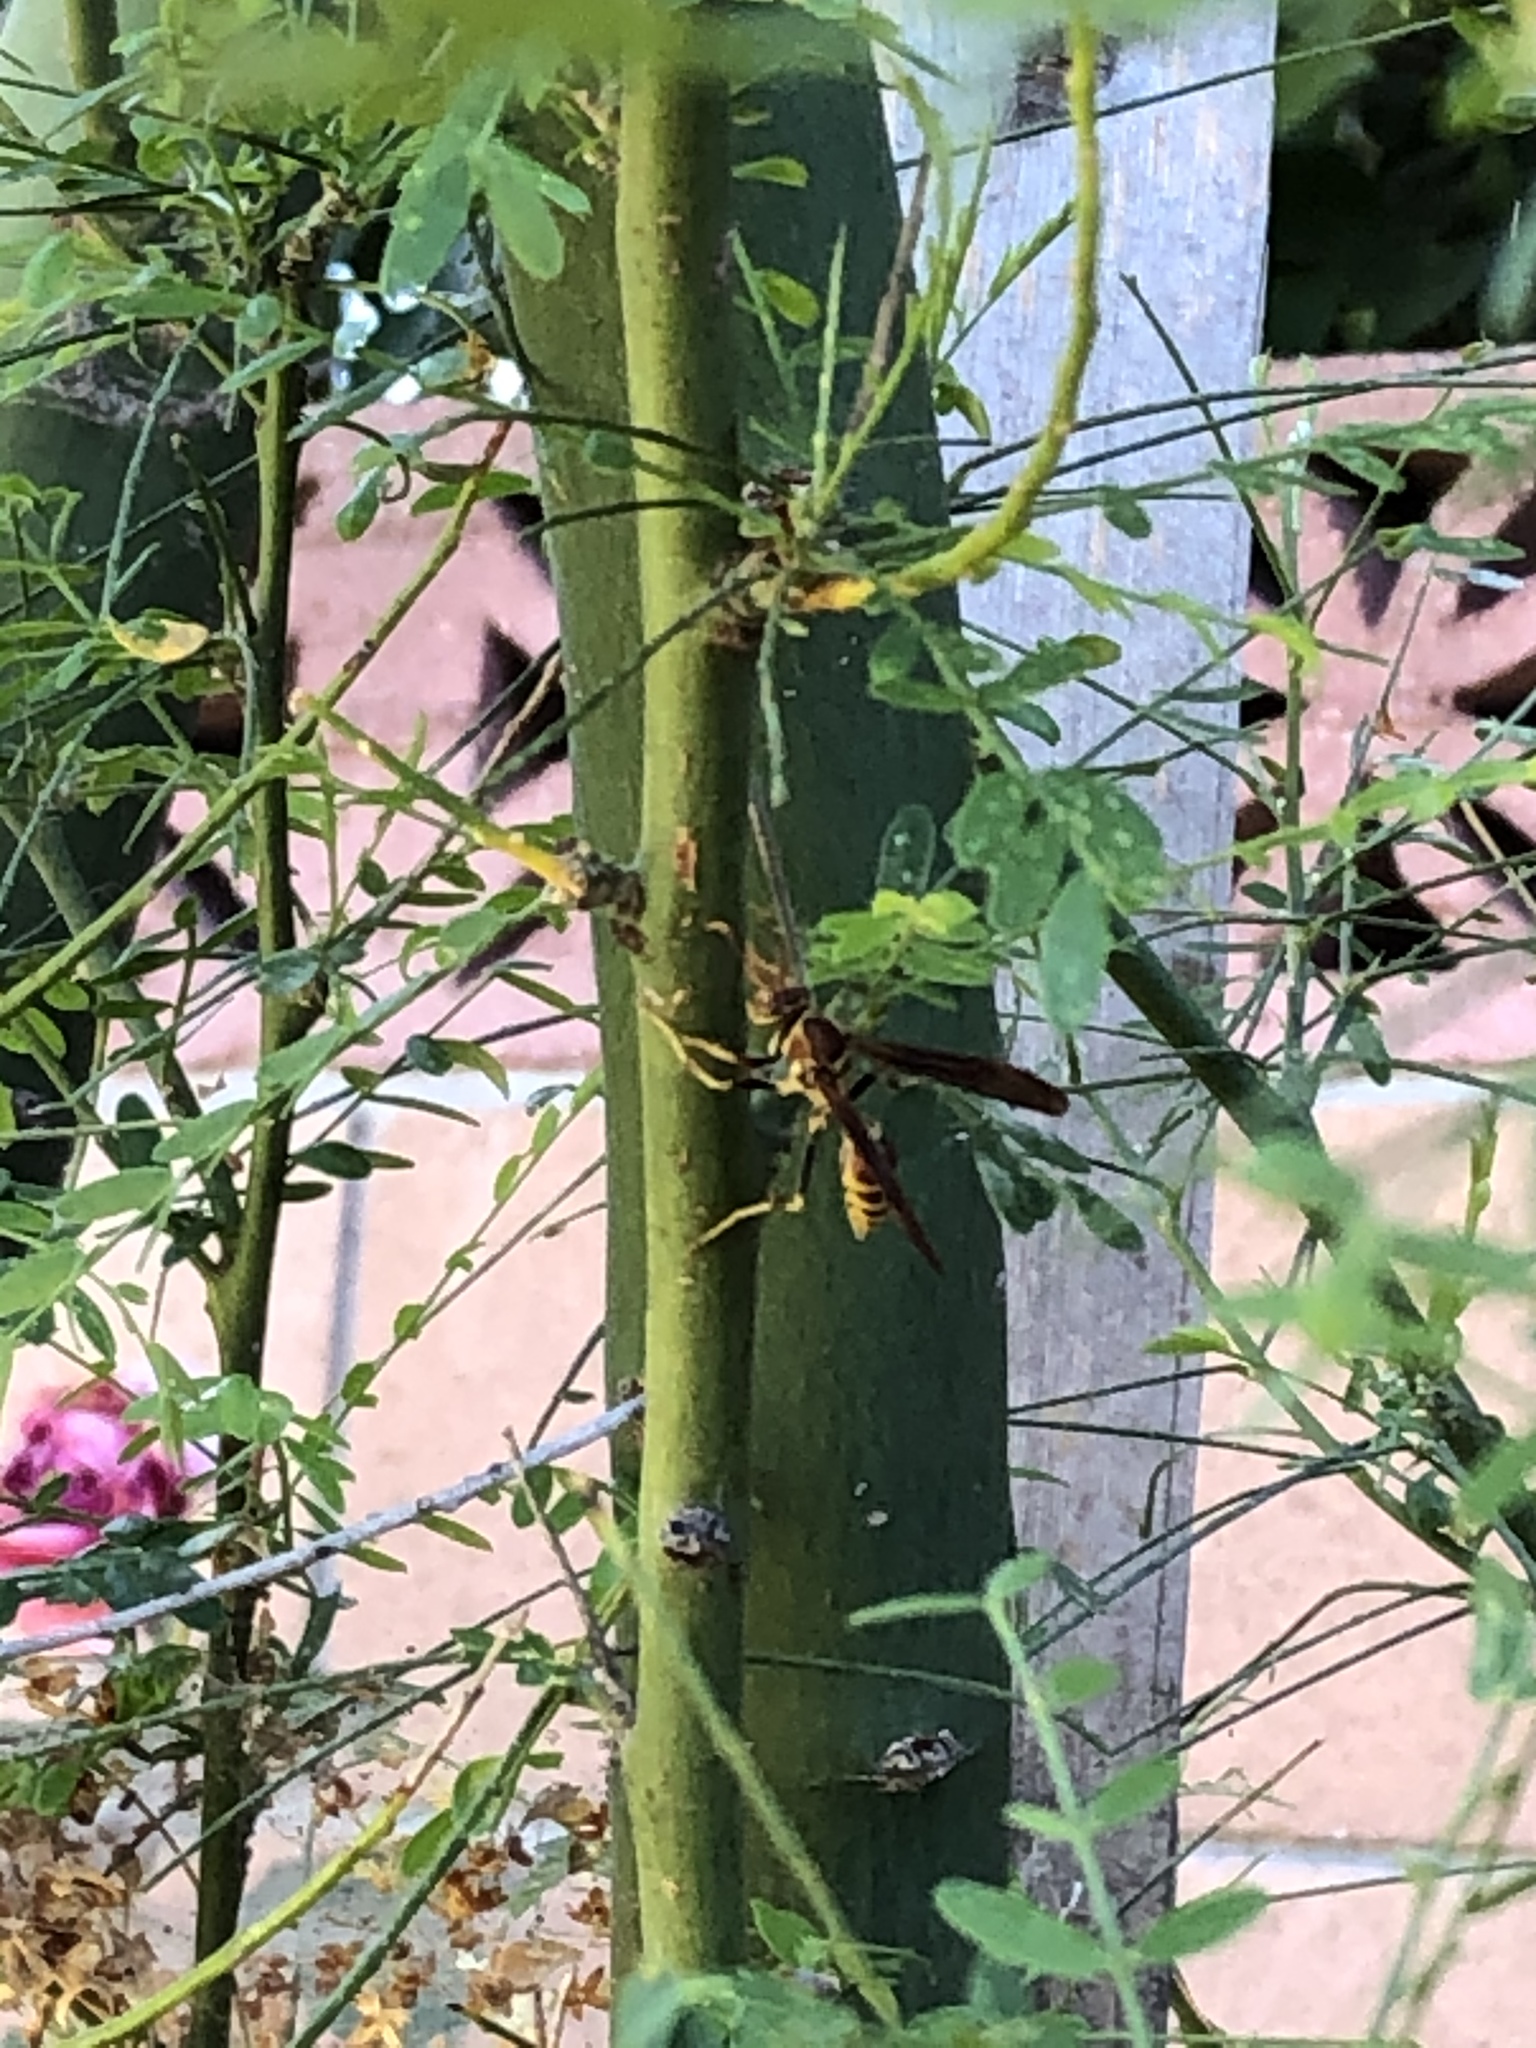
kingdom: Animalia
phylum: Arthropoda
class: Insecta
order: Hymenoptera
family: Eumenidae
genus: Polistes
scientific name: Polistes exclamans
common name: Paper wasp
